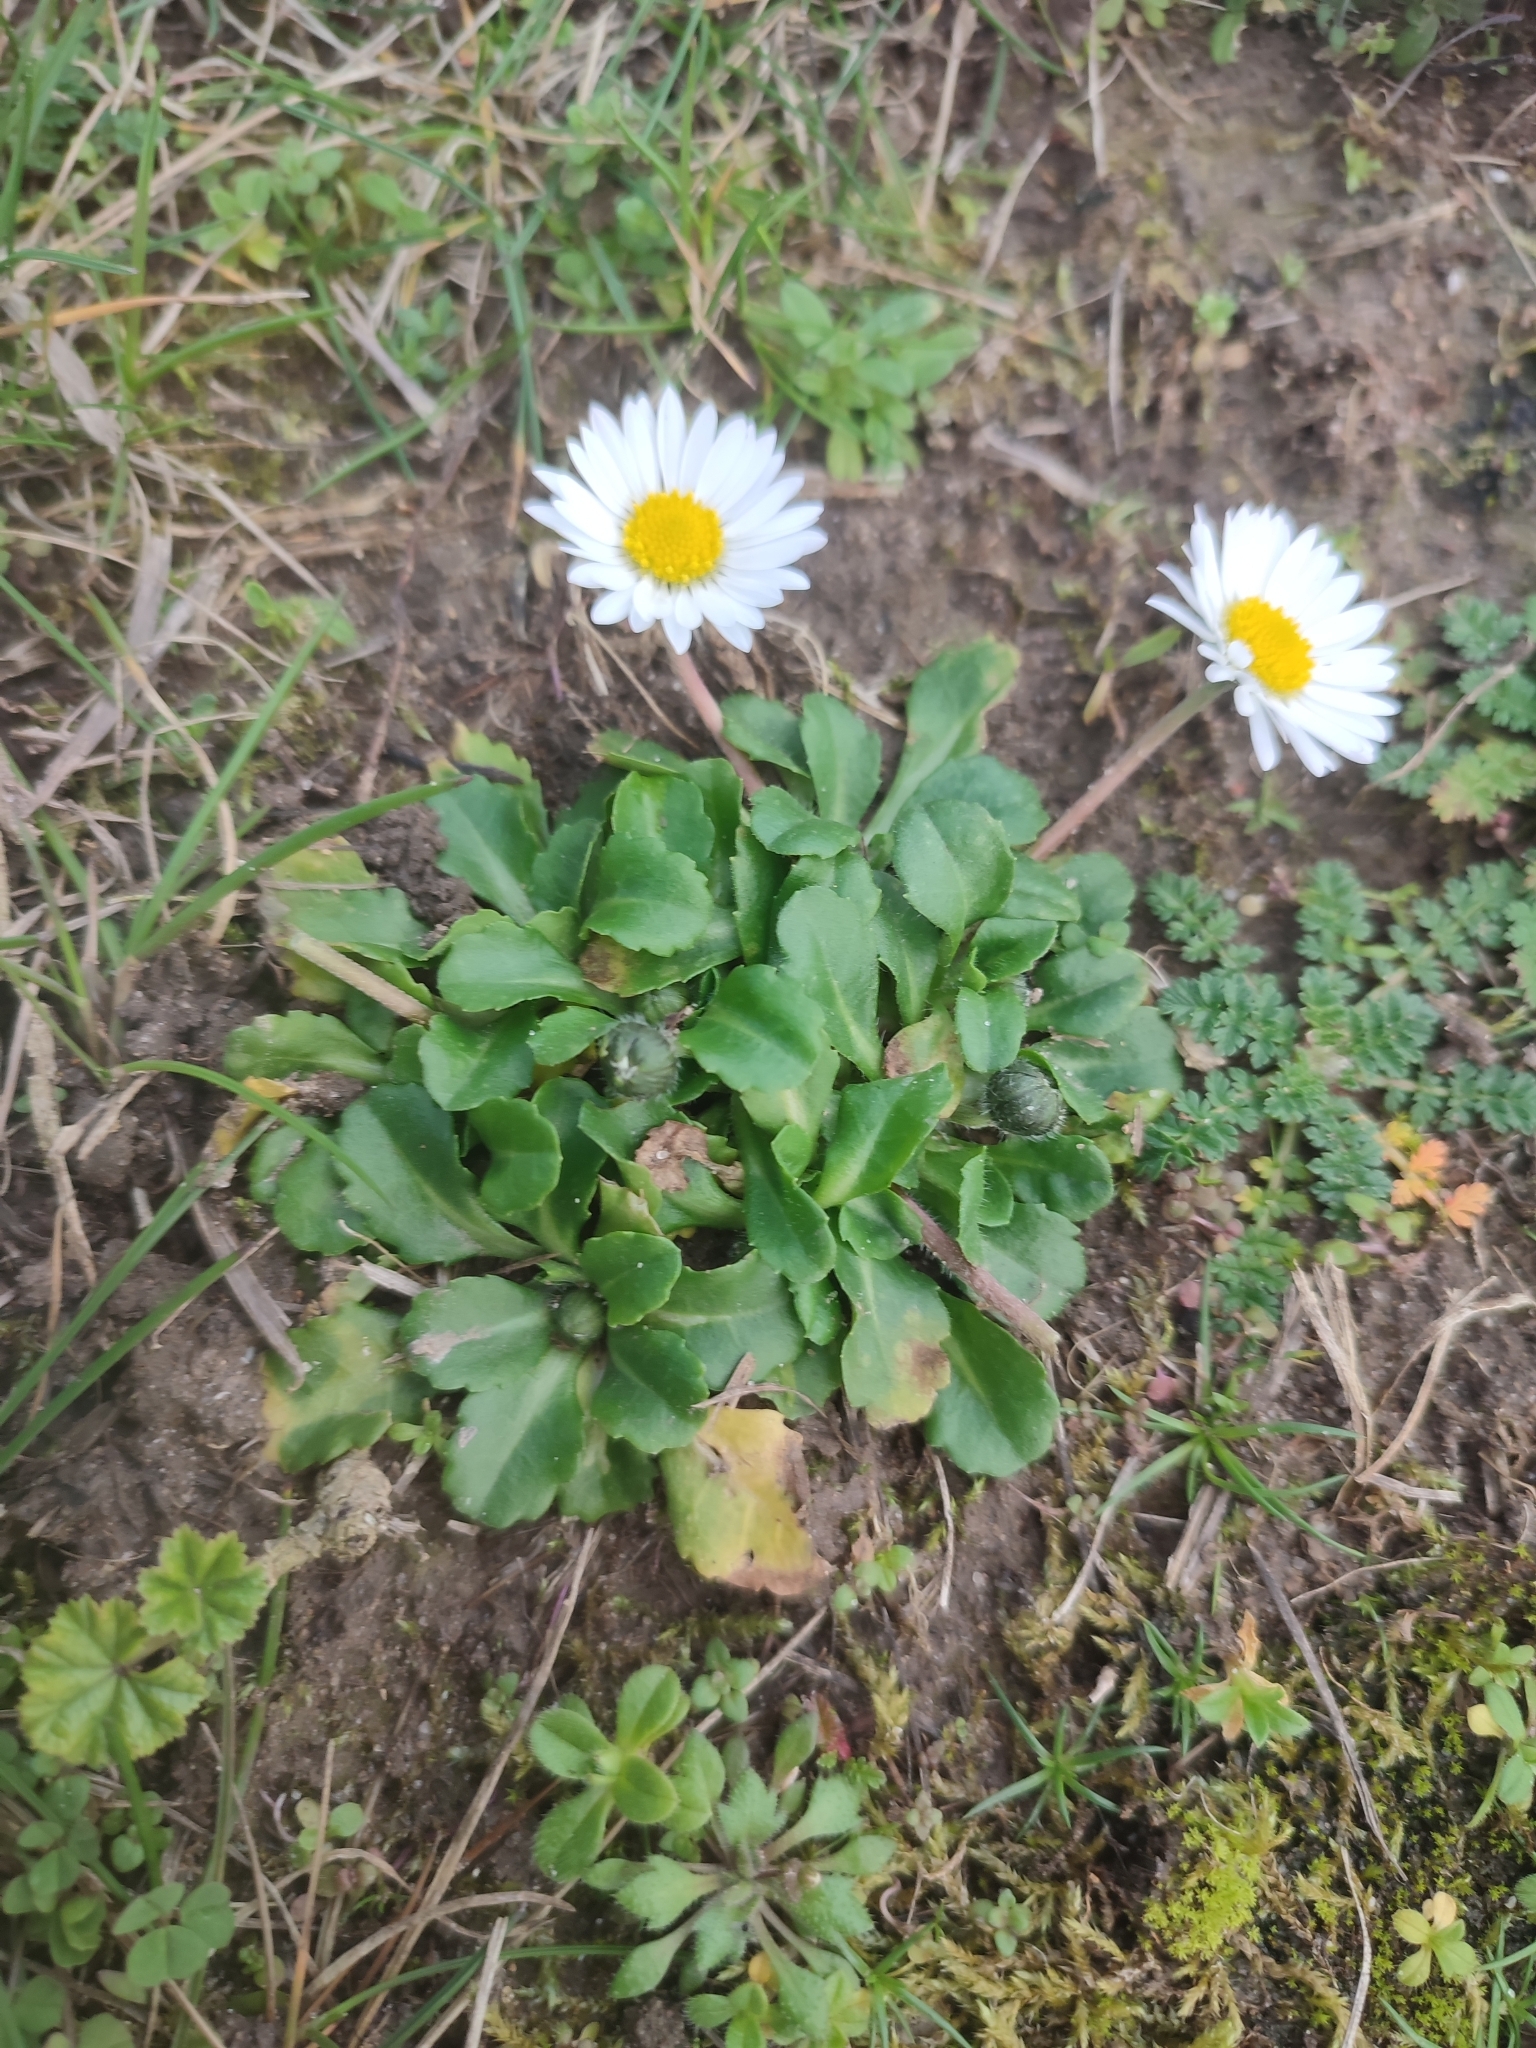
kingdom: Plantae
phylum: Tracheophyta
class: Magnoliopsida
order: Asterales
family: Asteraceae
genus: Bellis
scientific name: Bellis perennis
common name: Lawndaisy
